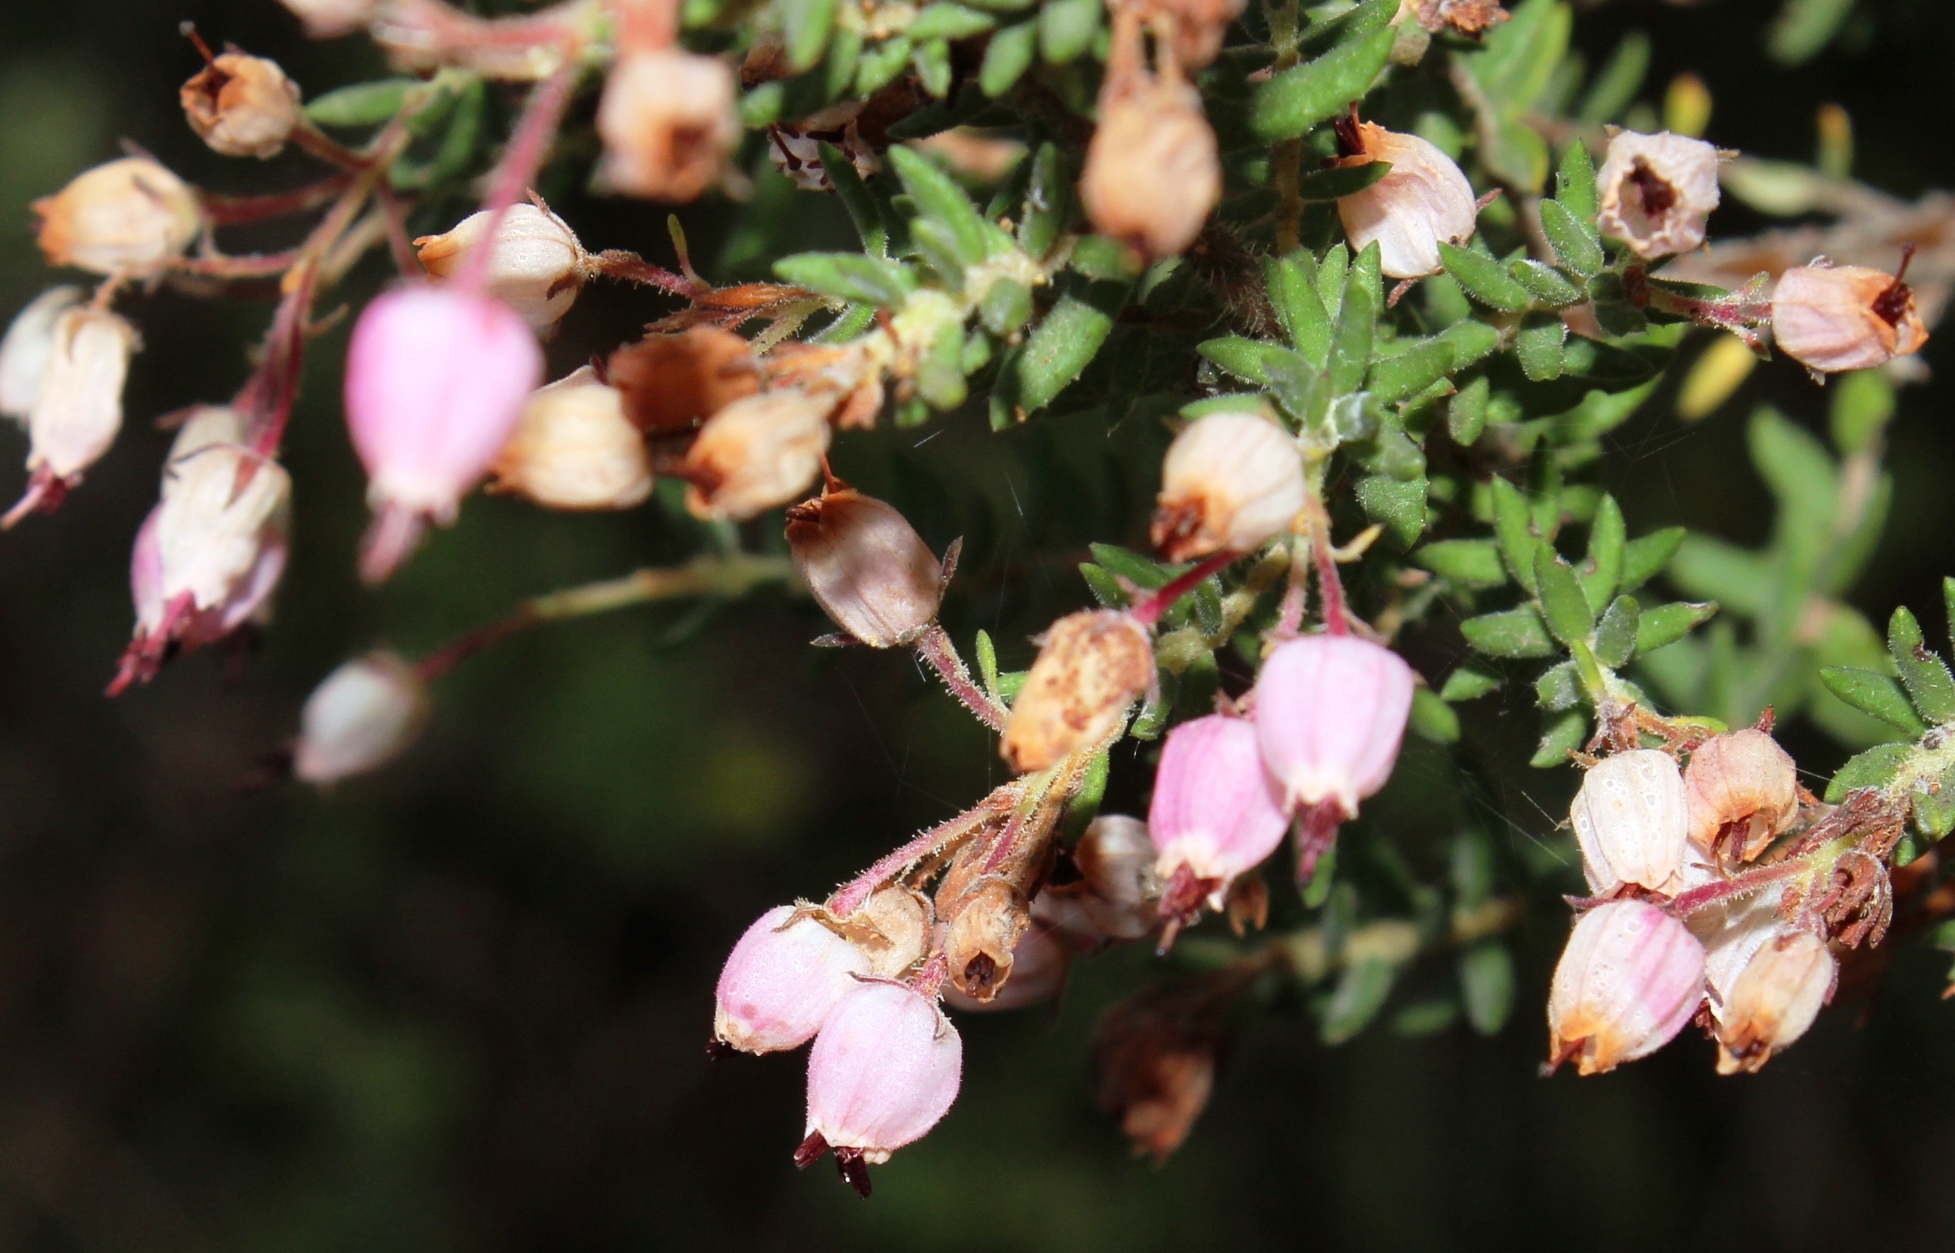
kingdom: Plantae
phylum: Tracheophyta
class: Magnoliopsida
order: Ericales
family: Ericaceae
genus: Erica
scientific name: Erica hirta
